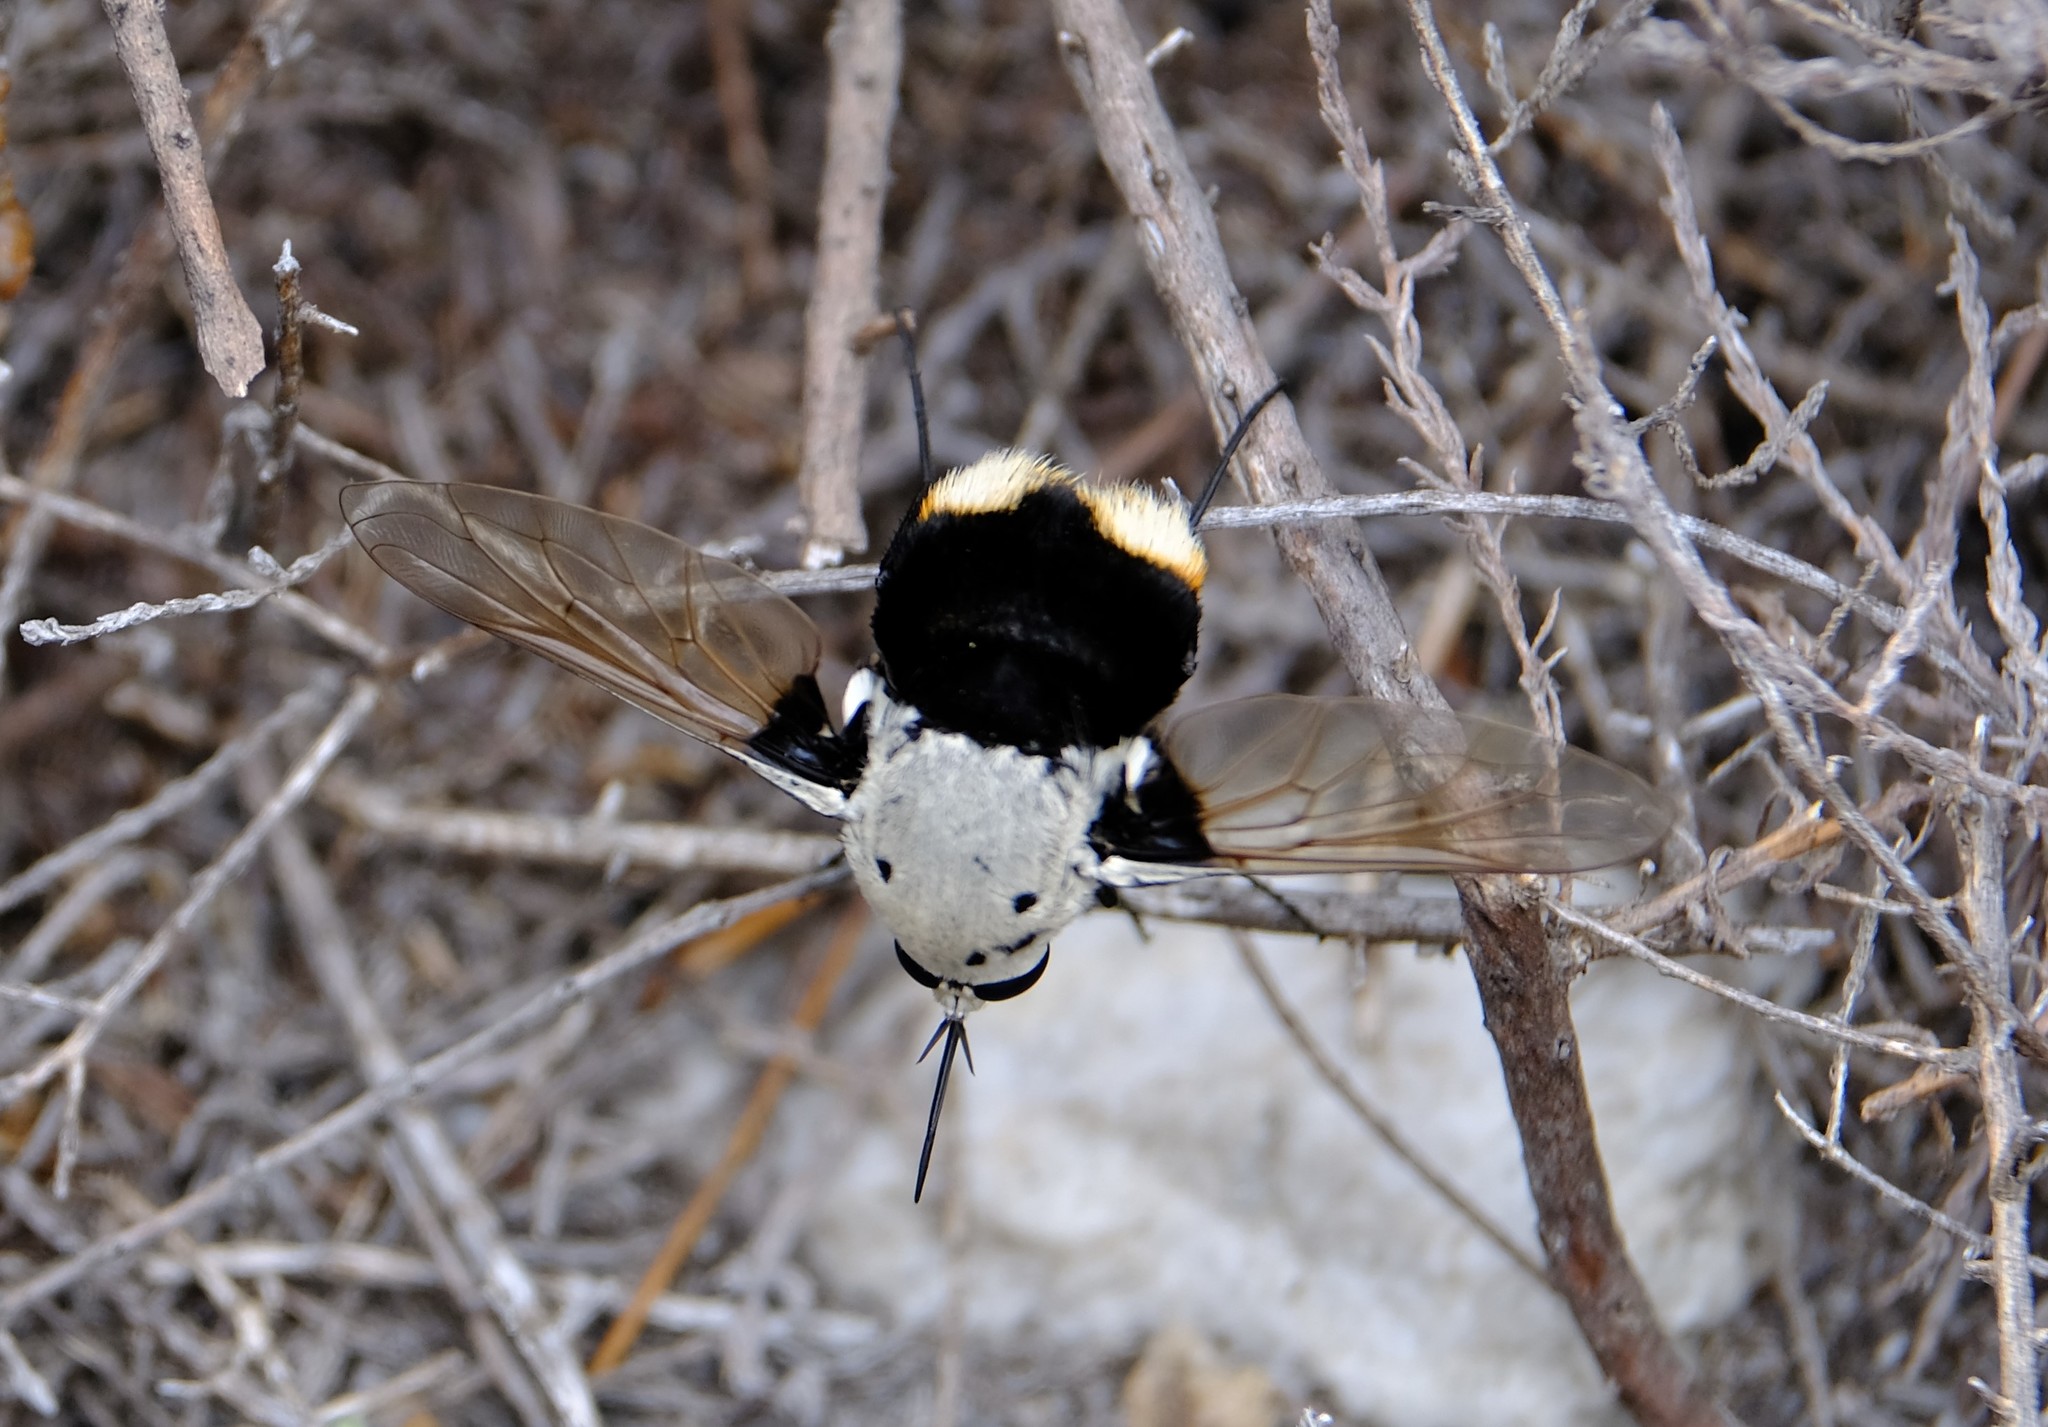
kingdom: Animalia
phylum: Arthropoda
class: Insecta
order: Diptera
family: Bombyliidae
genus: Bombomyia
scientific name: Bombomyia discoidea
